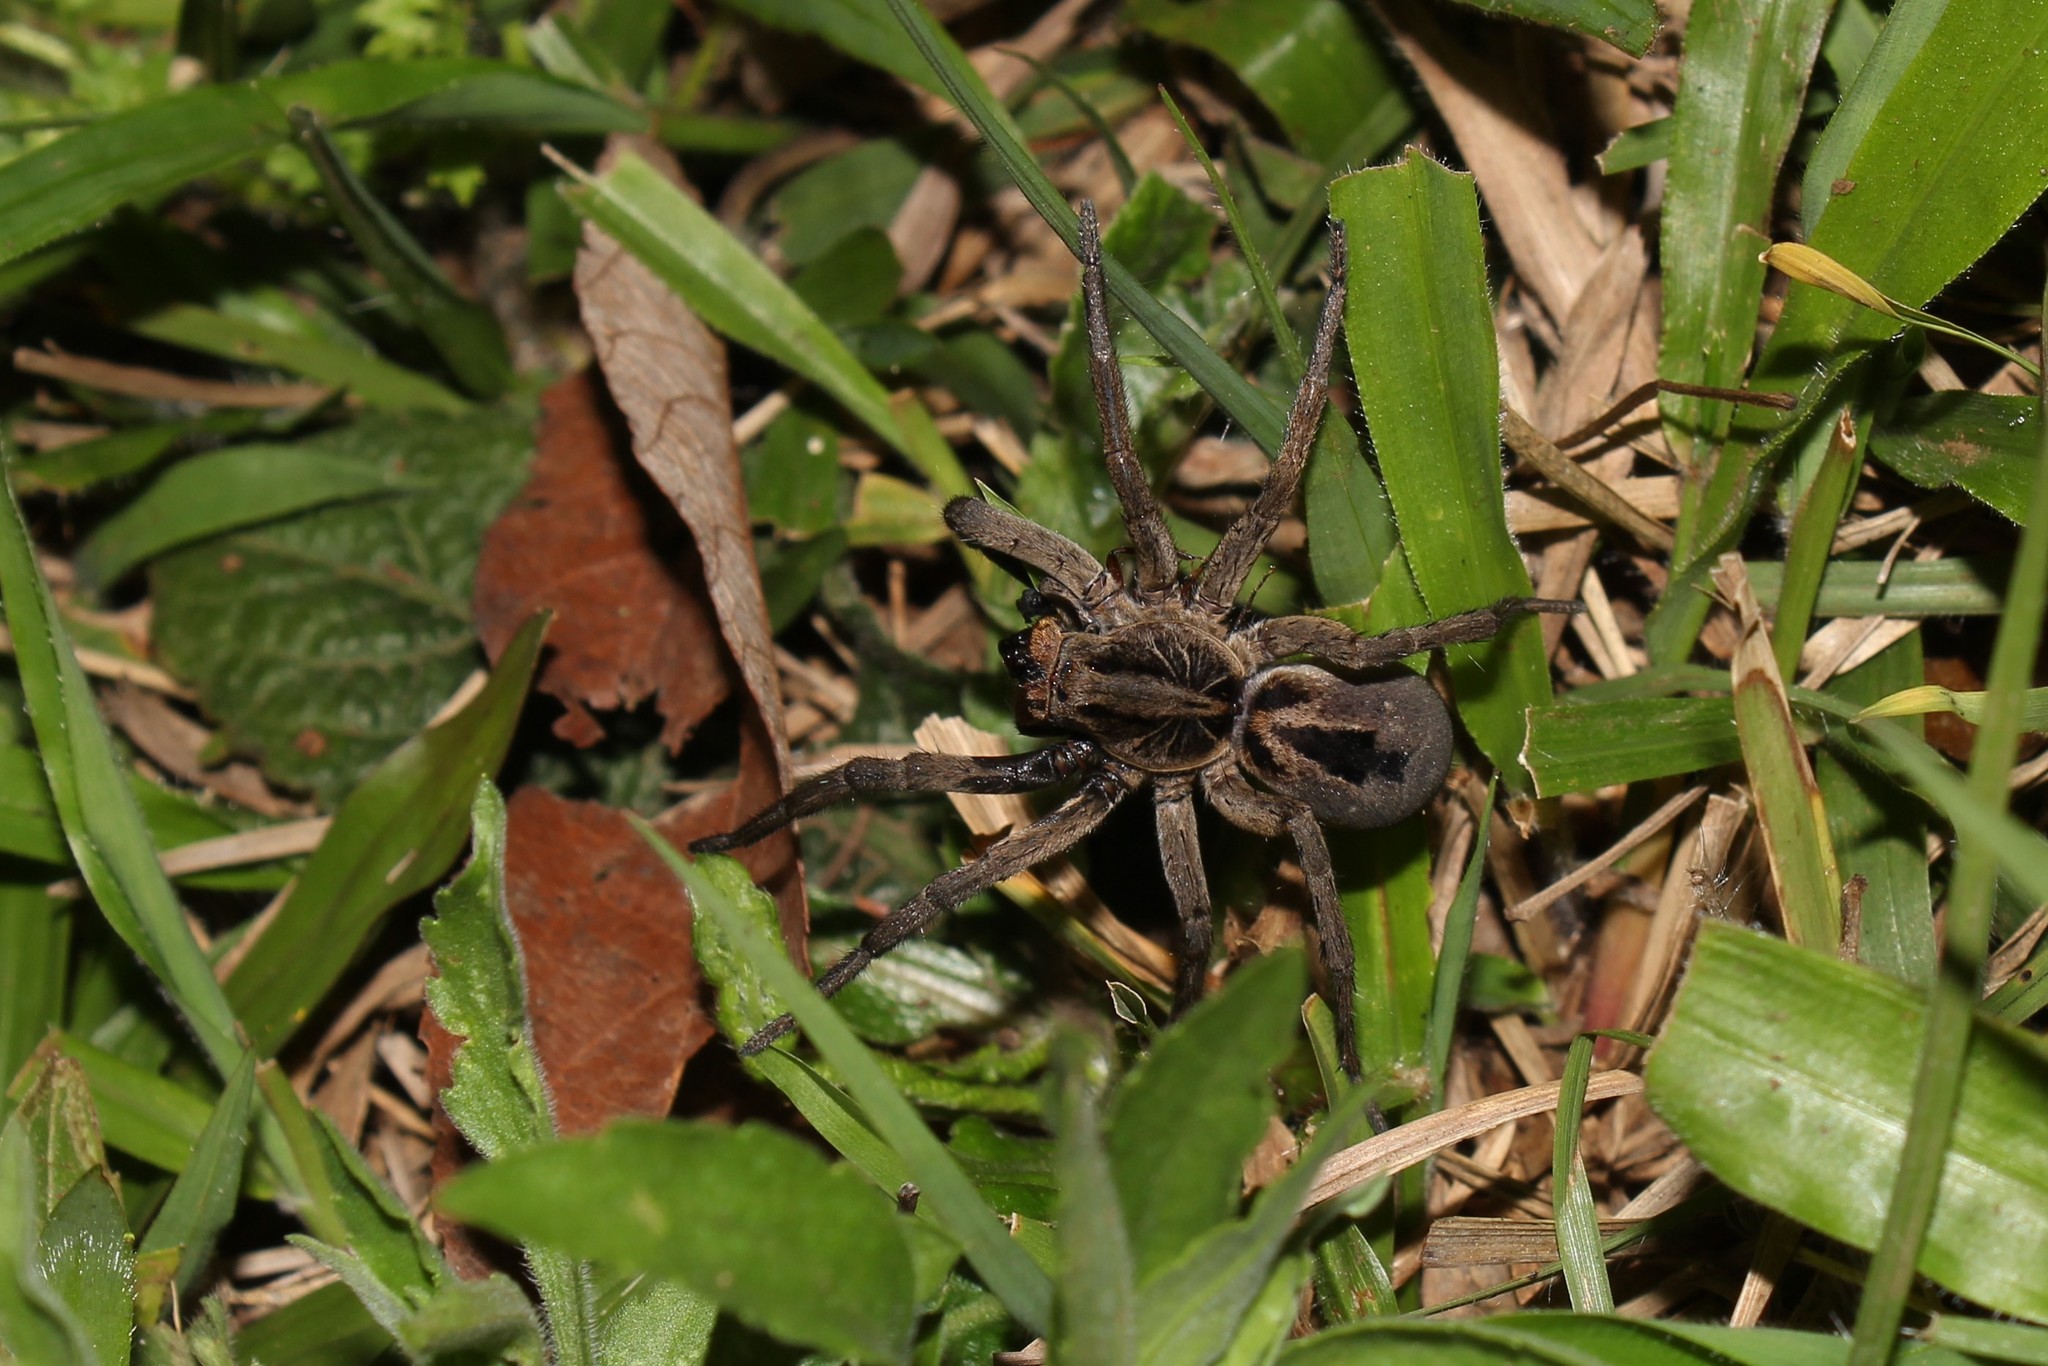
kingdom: Animalia
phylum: Arthropoda
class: Arachnida
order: Araneae
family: Lycosidae
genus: Lycosa
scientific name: Lycosa erythrognatha
